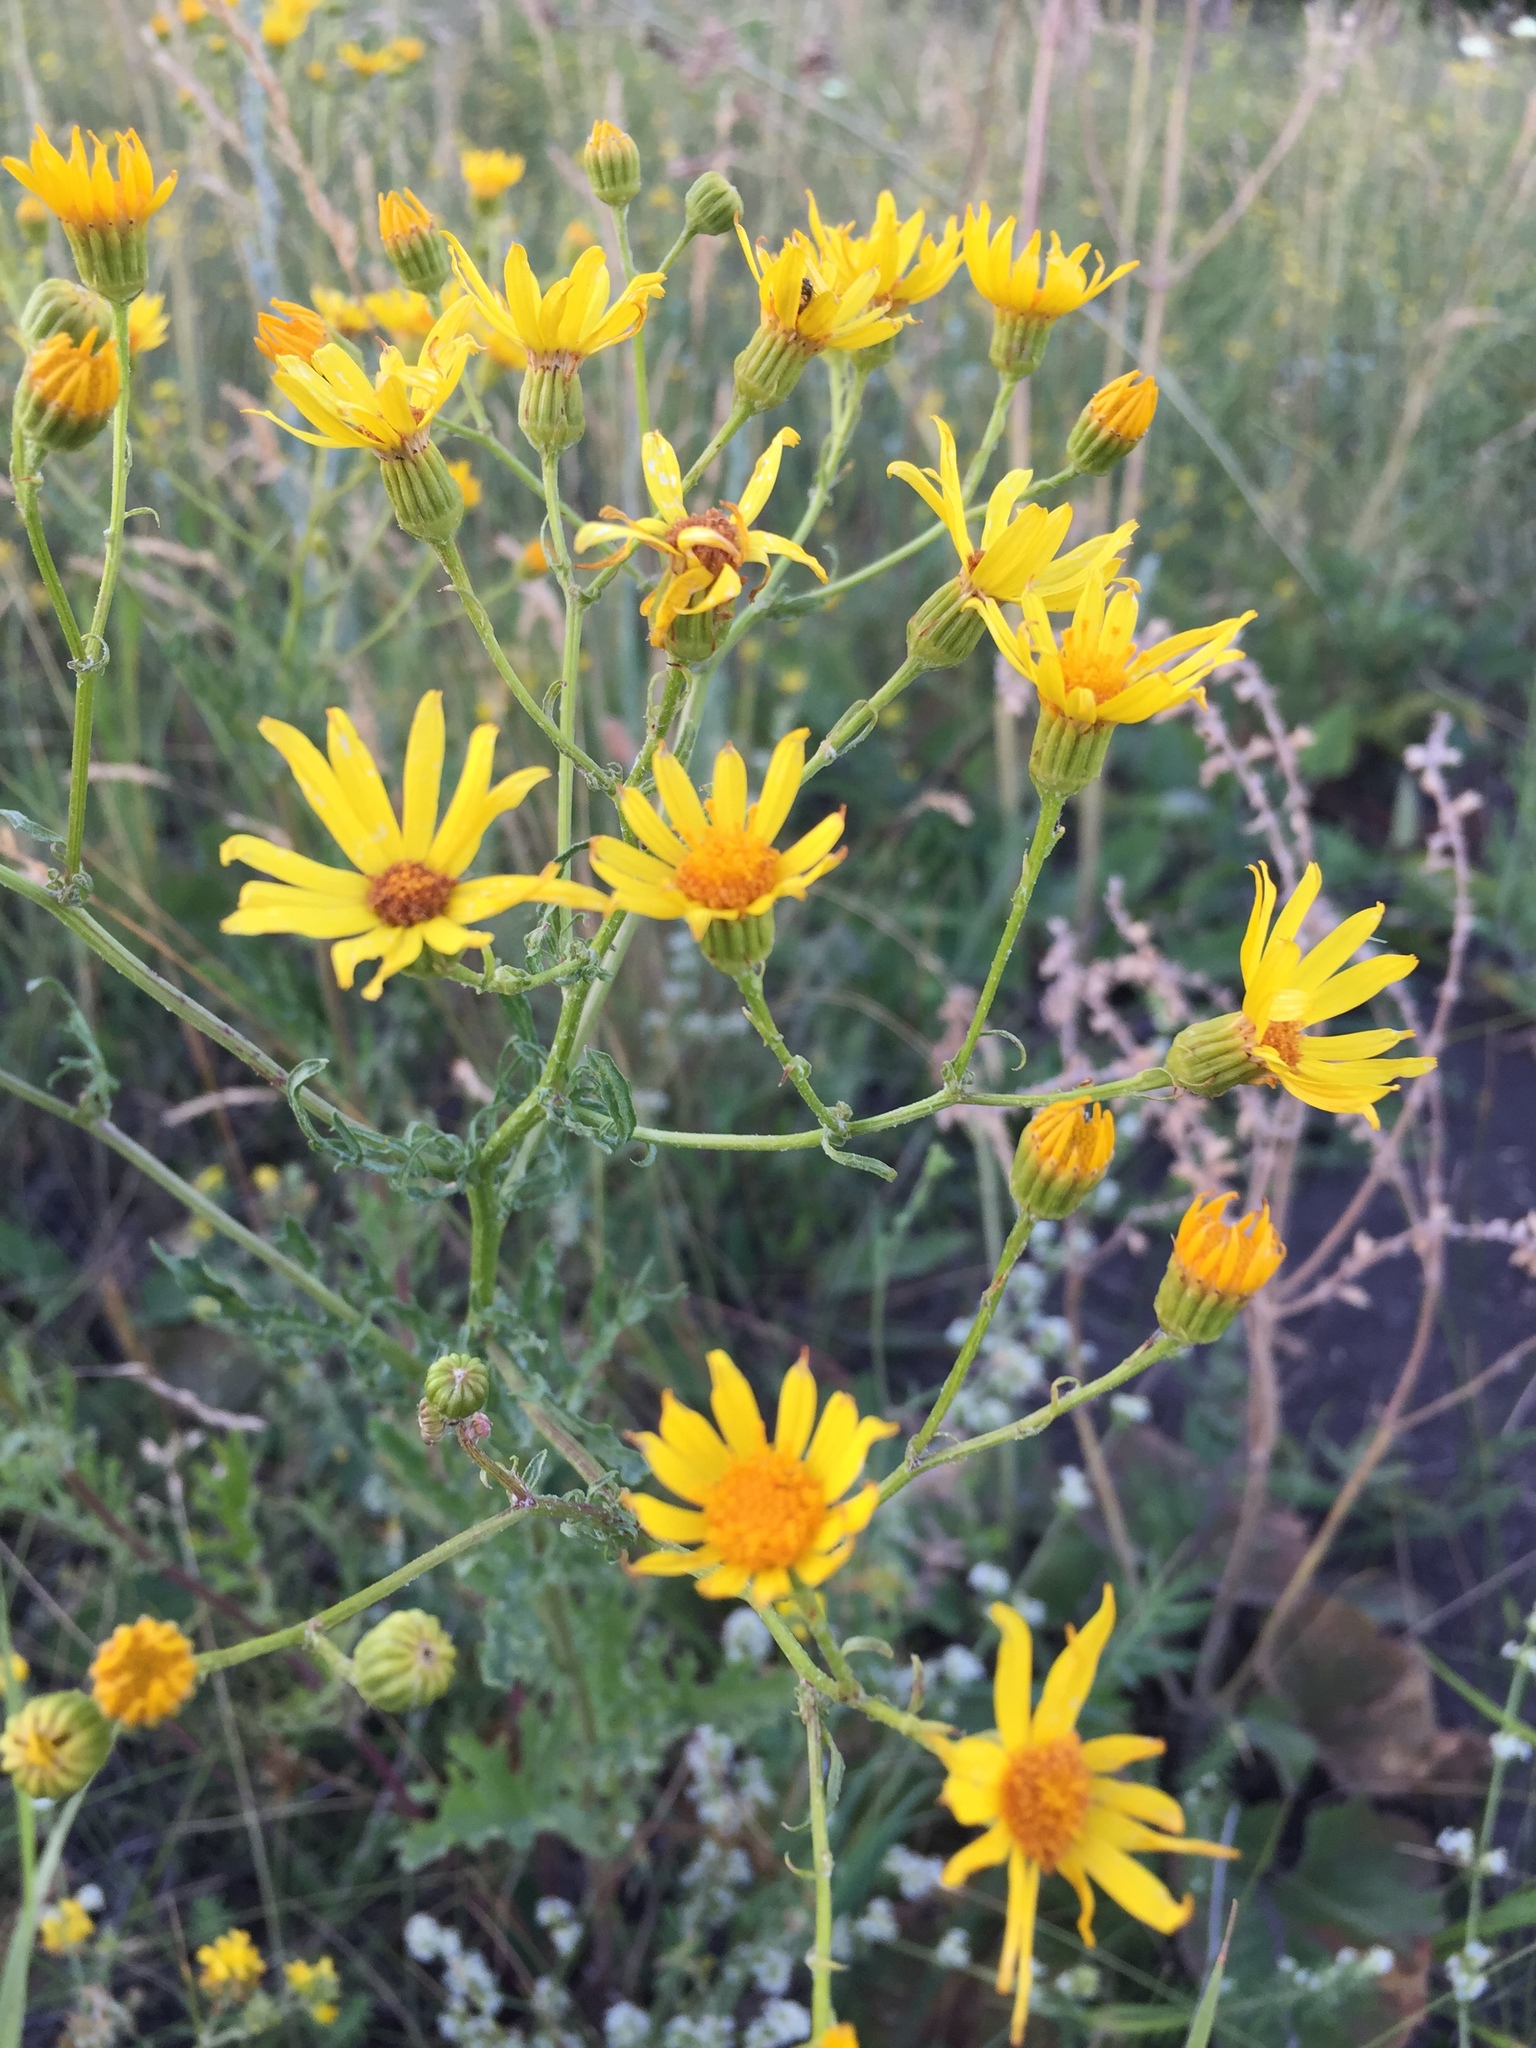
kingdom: Plantae
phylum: Tracheophyta
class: Magnoliopsida
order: Asterales
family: Asteraceae
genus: Jacobaea
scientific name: Jacobaea vulgaris
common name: Stinking willie
